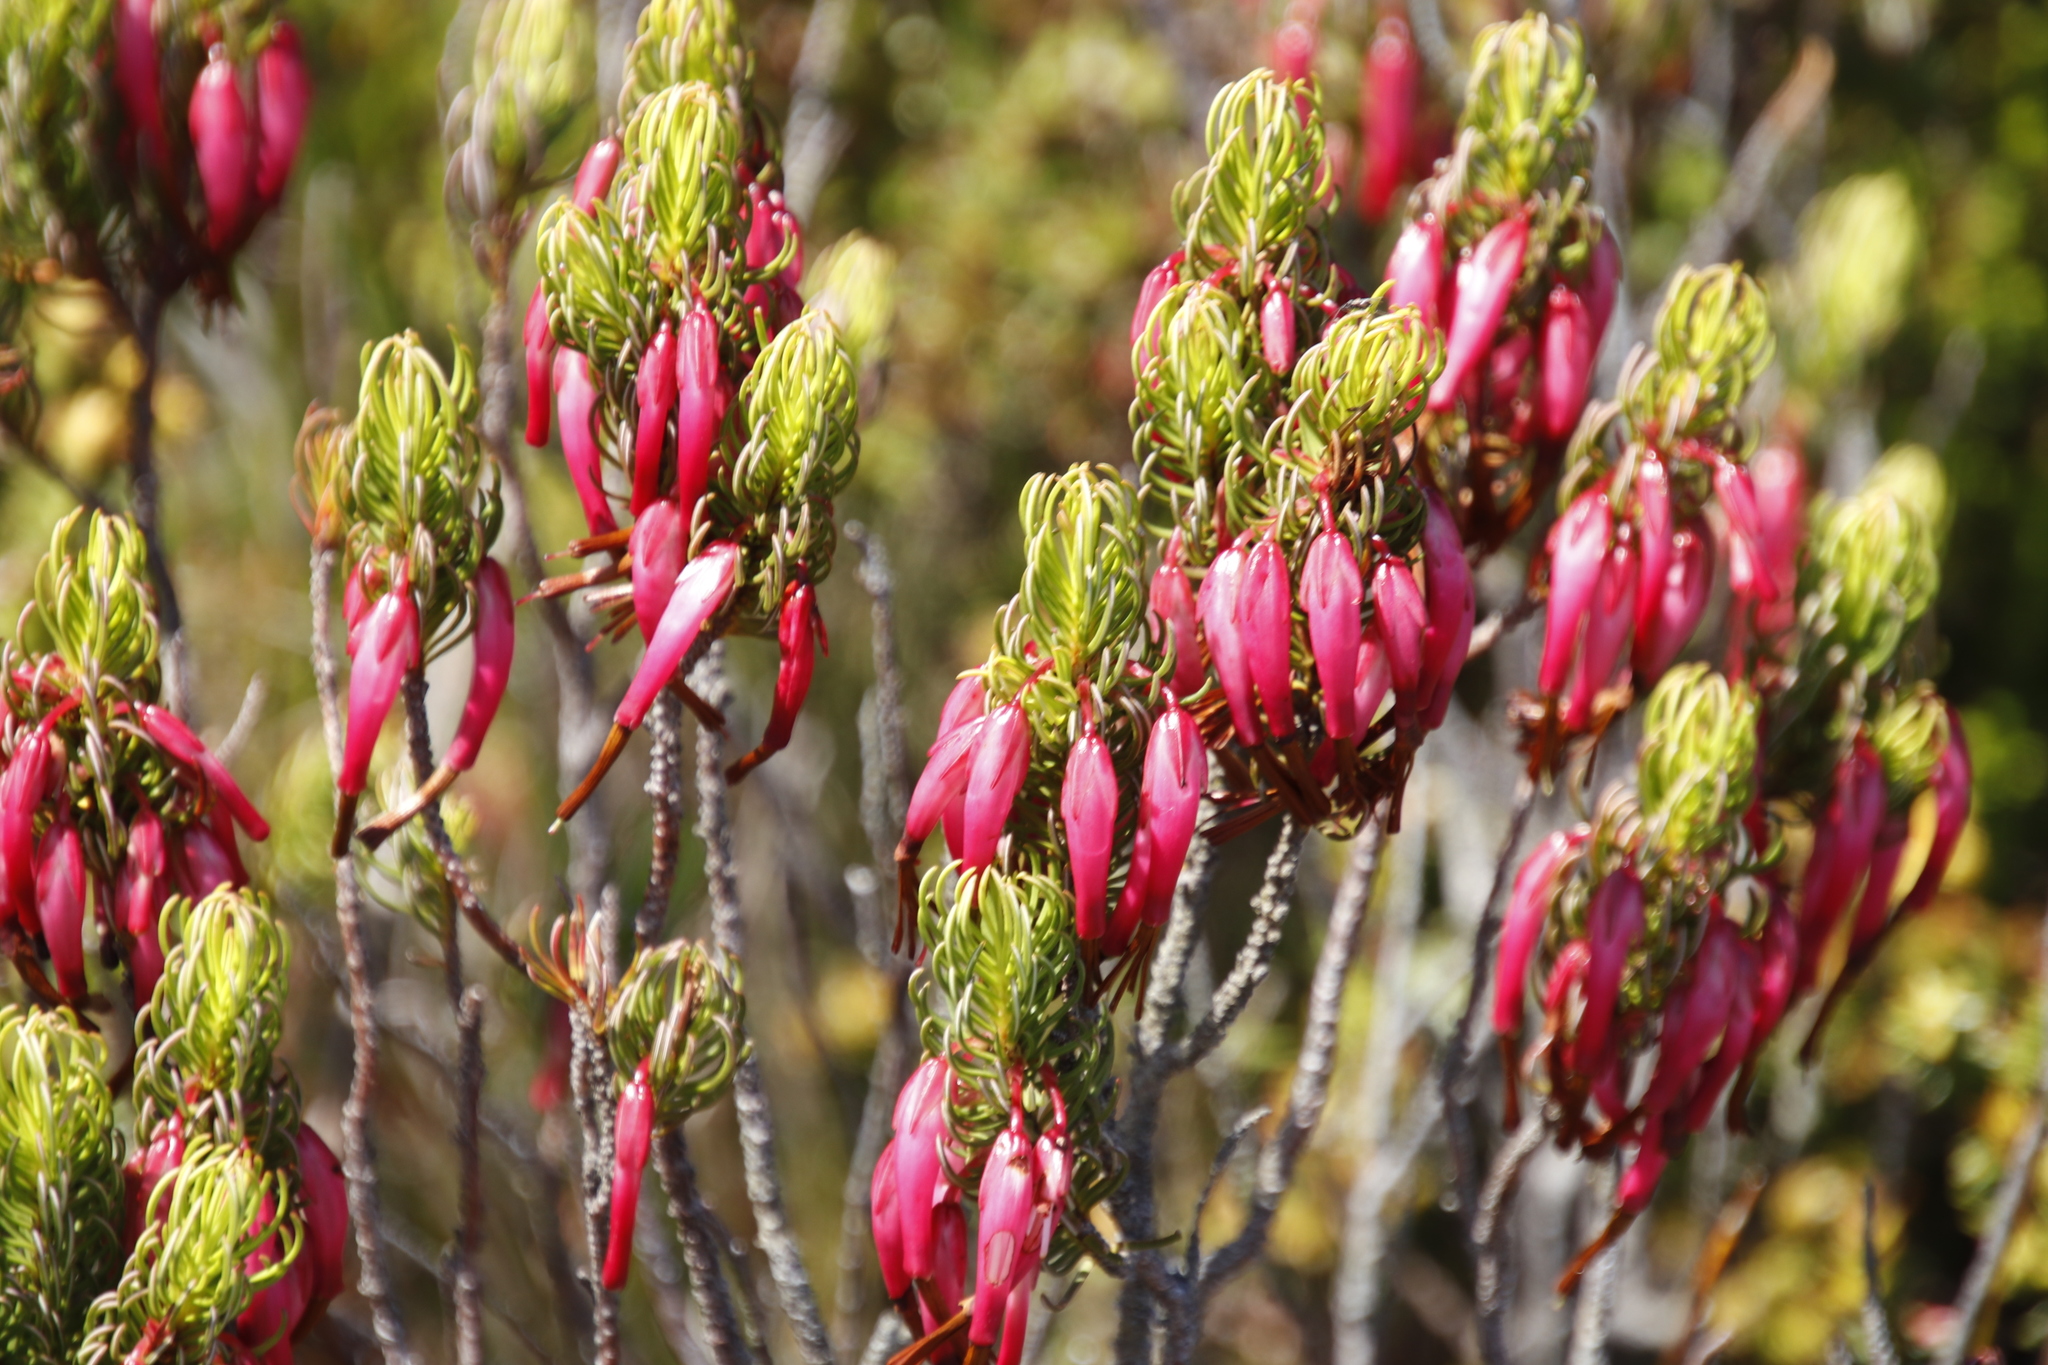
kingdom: Plantae
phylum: Tracheophyta
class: Magnoliopsida
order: Ericales
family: Ericaceae
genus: Erica
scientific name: Erica plukenetii
